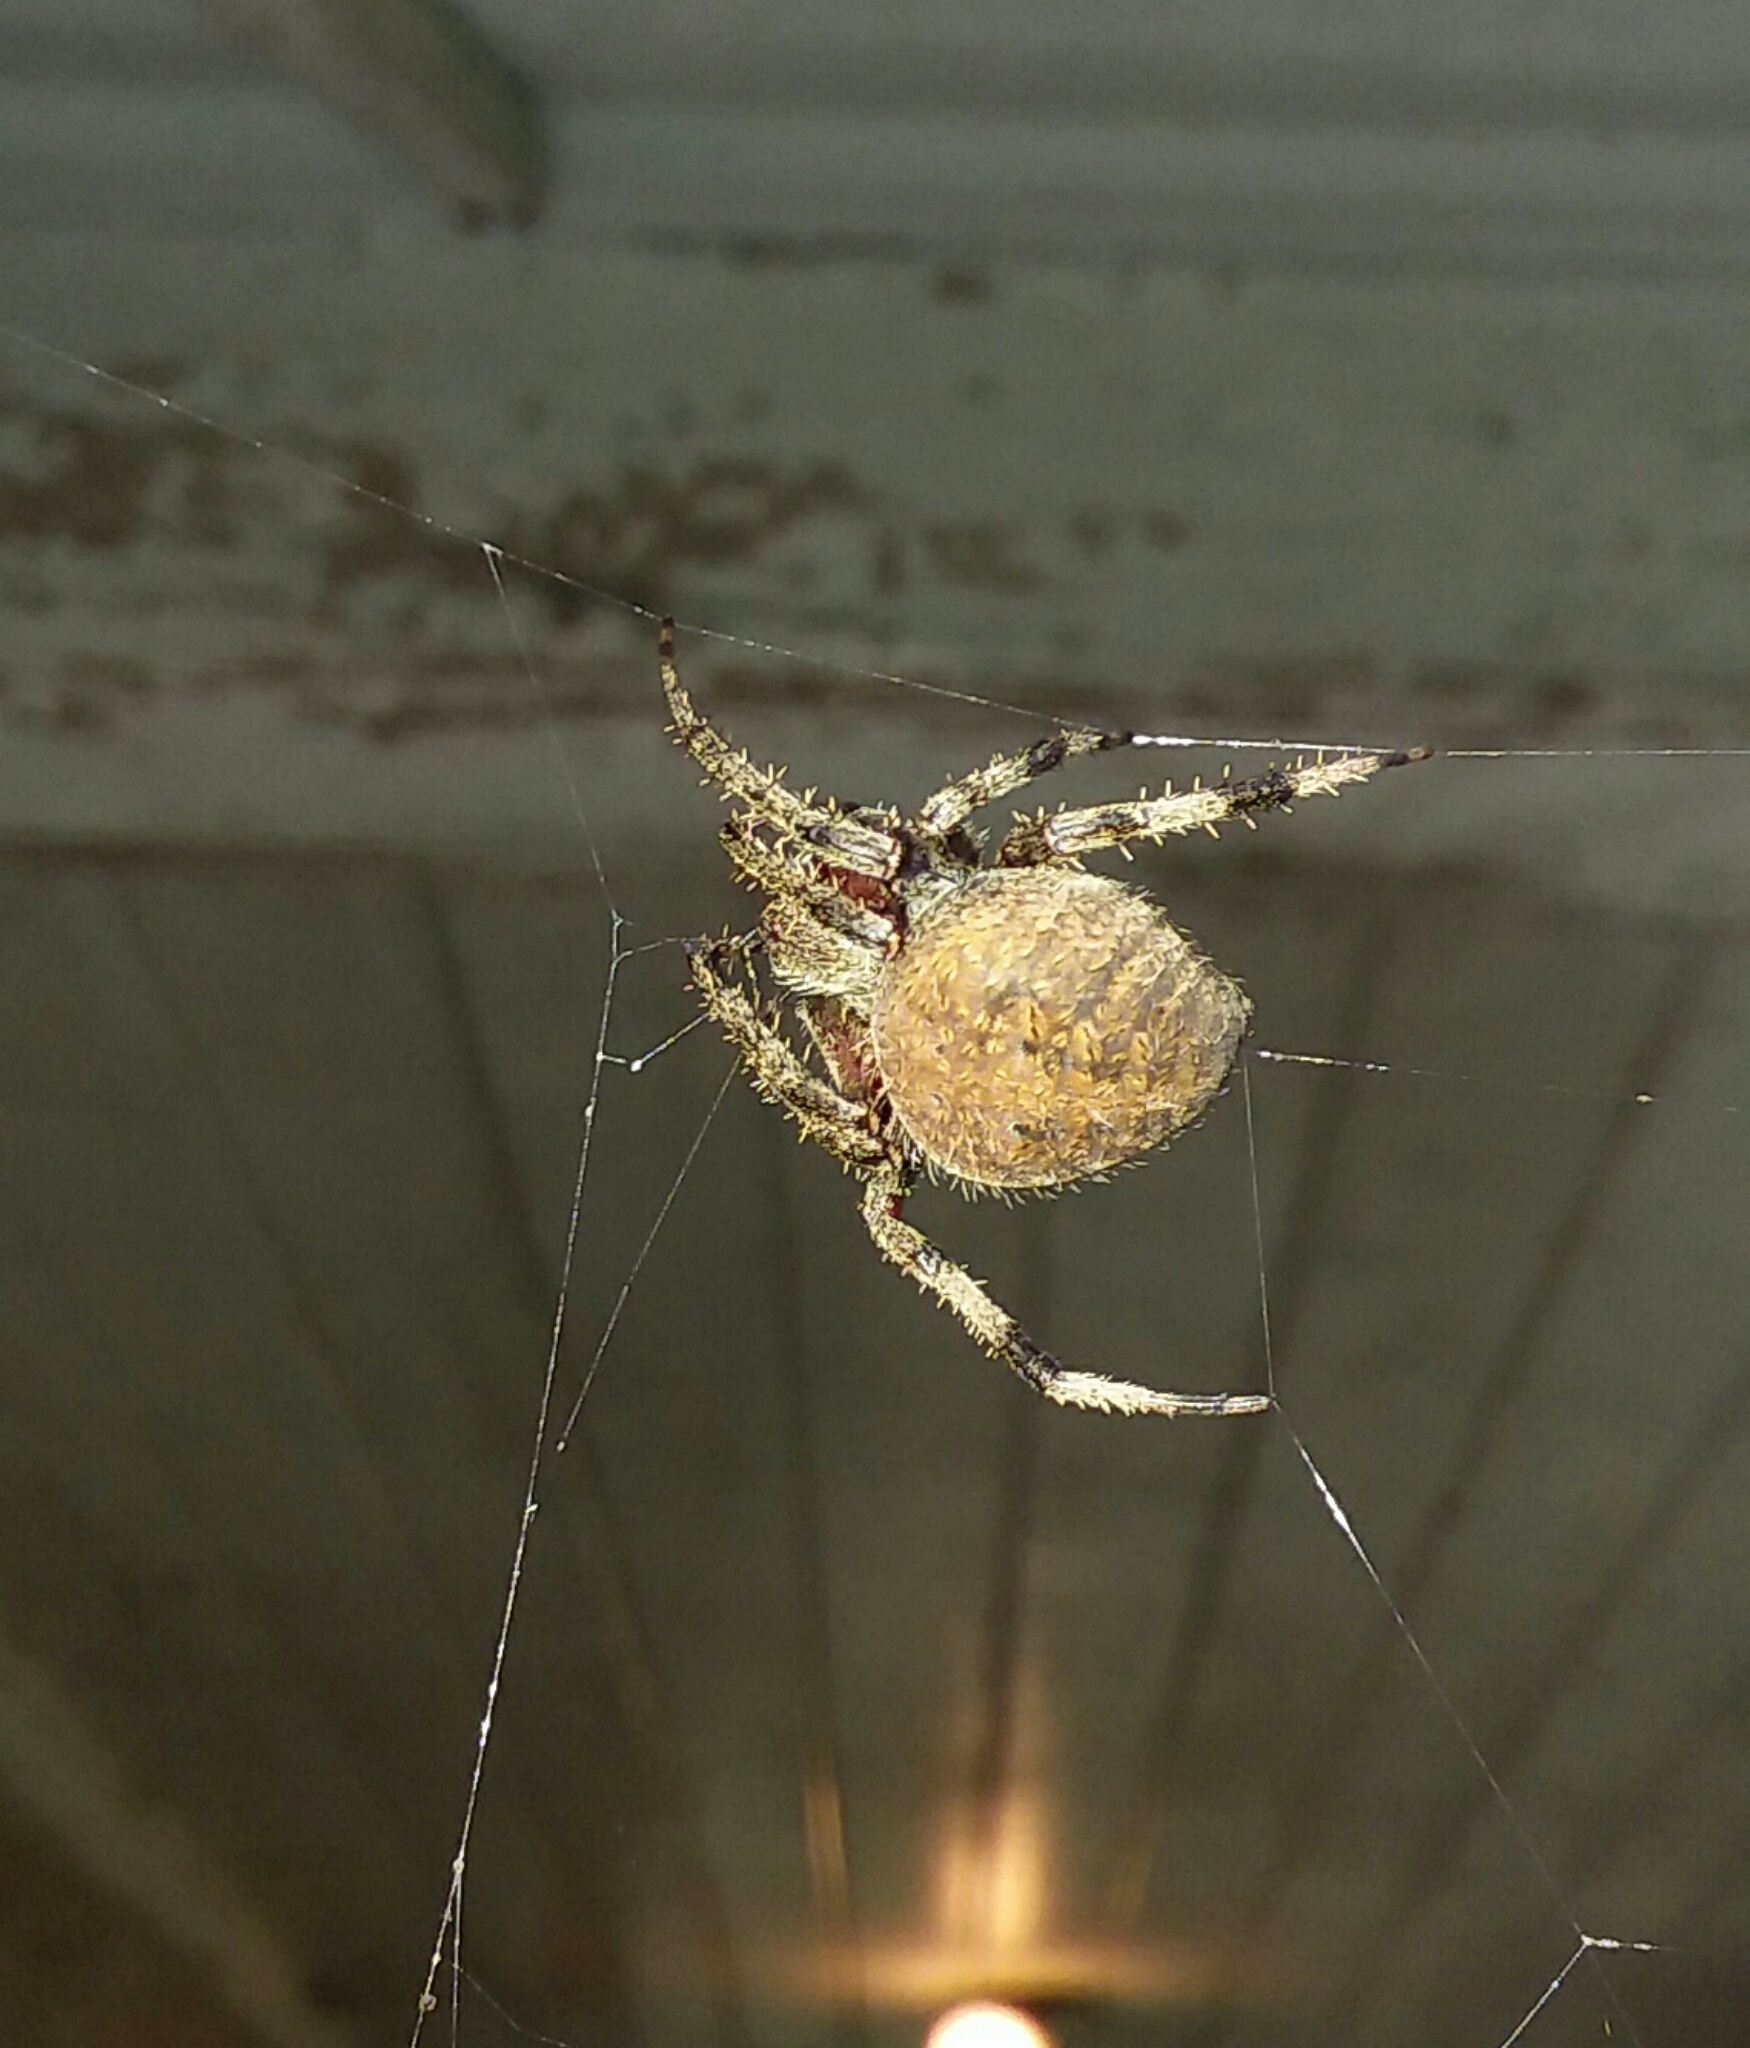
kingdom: Animalia
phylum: Arthropoda
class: Arachnida
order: Araneae
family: Araneidae
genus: Neoscona
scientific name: Neoscona crucifera
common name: Spotted orbweaver
